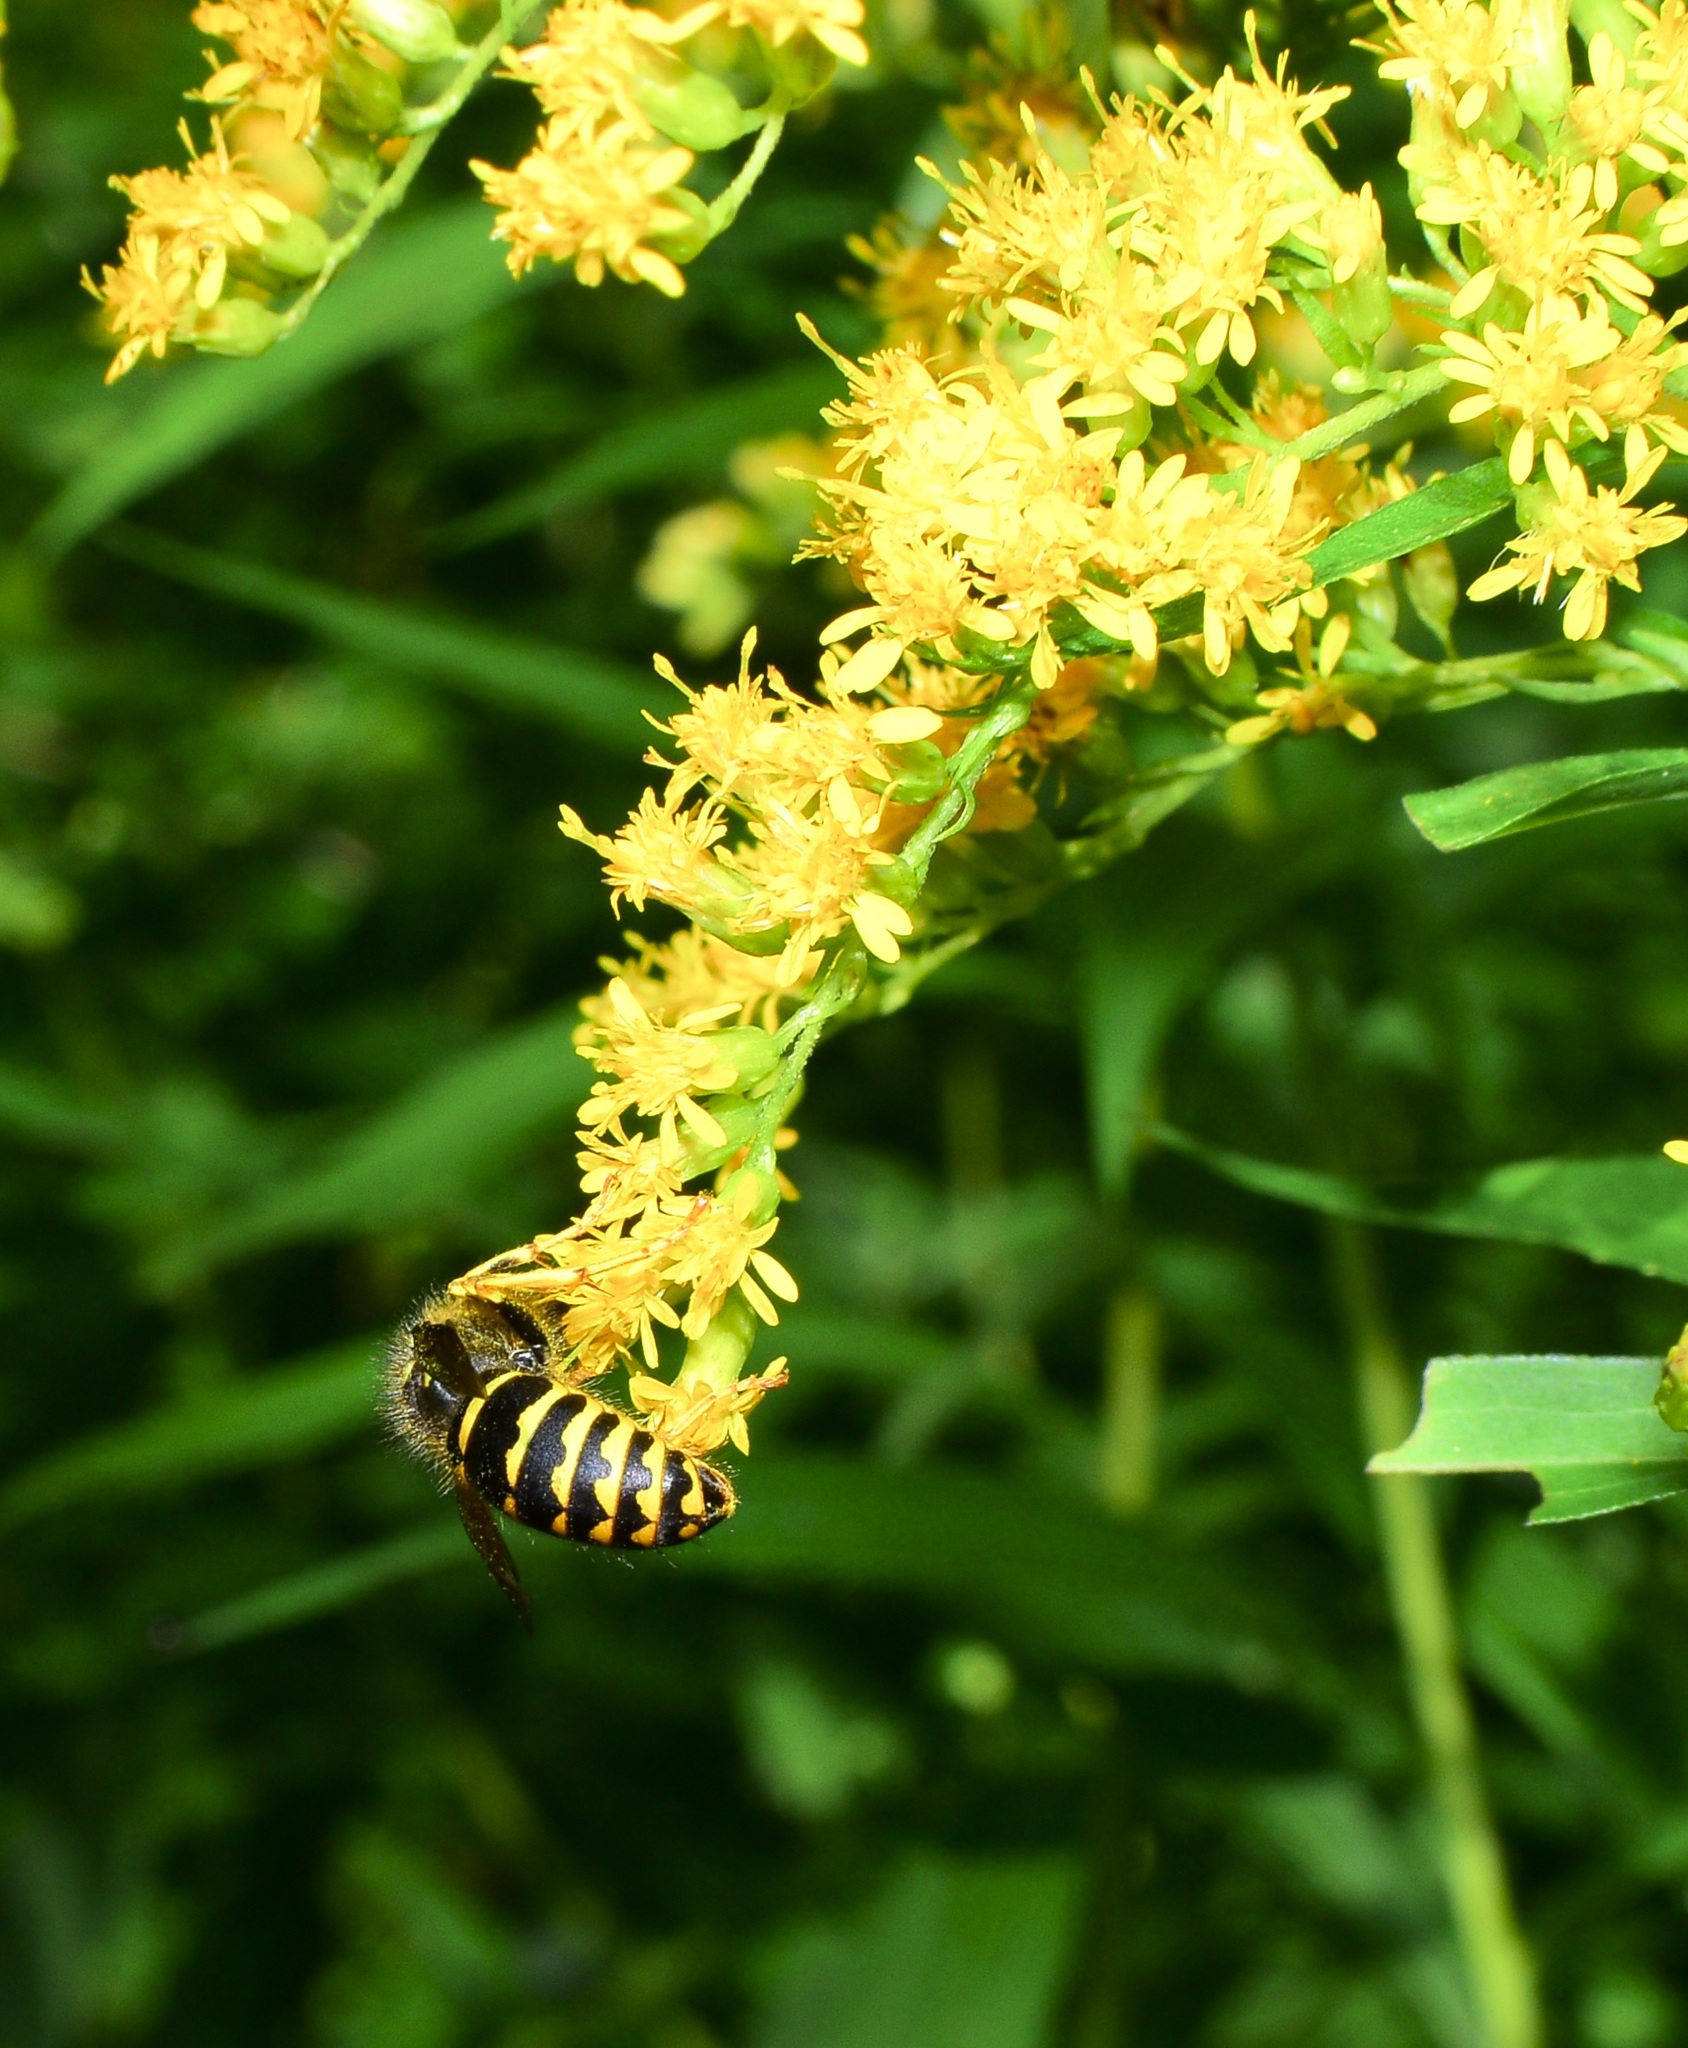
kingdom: Animalia
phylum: Arthropoda
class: Insecta
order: Hymenoptera
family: Vespidae
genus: Dolichovespula
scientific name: Dolichovespula arenaria
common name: Aerial yellowjacket
